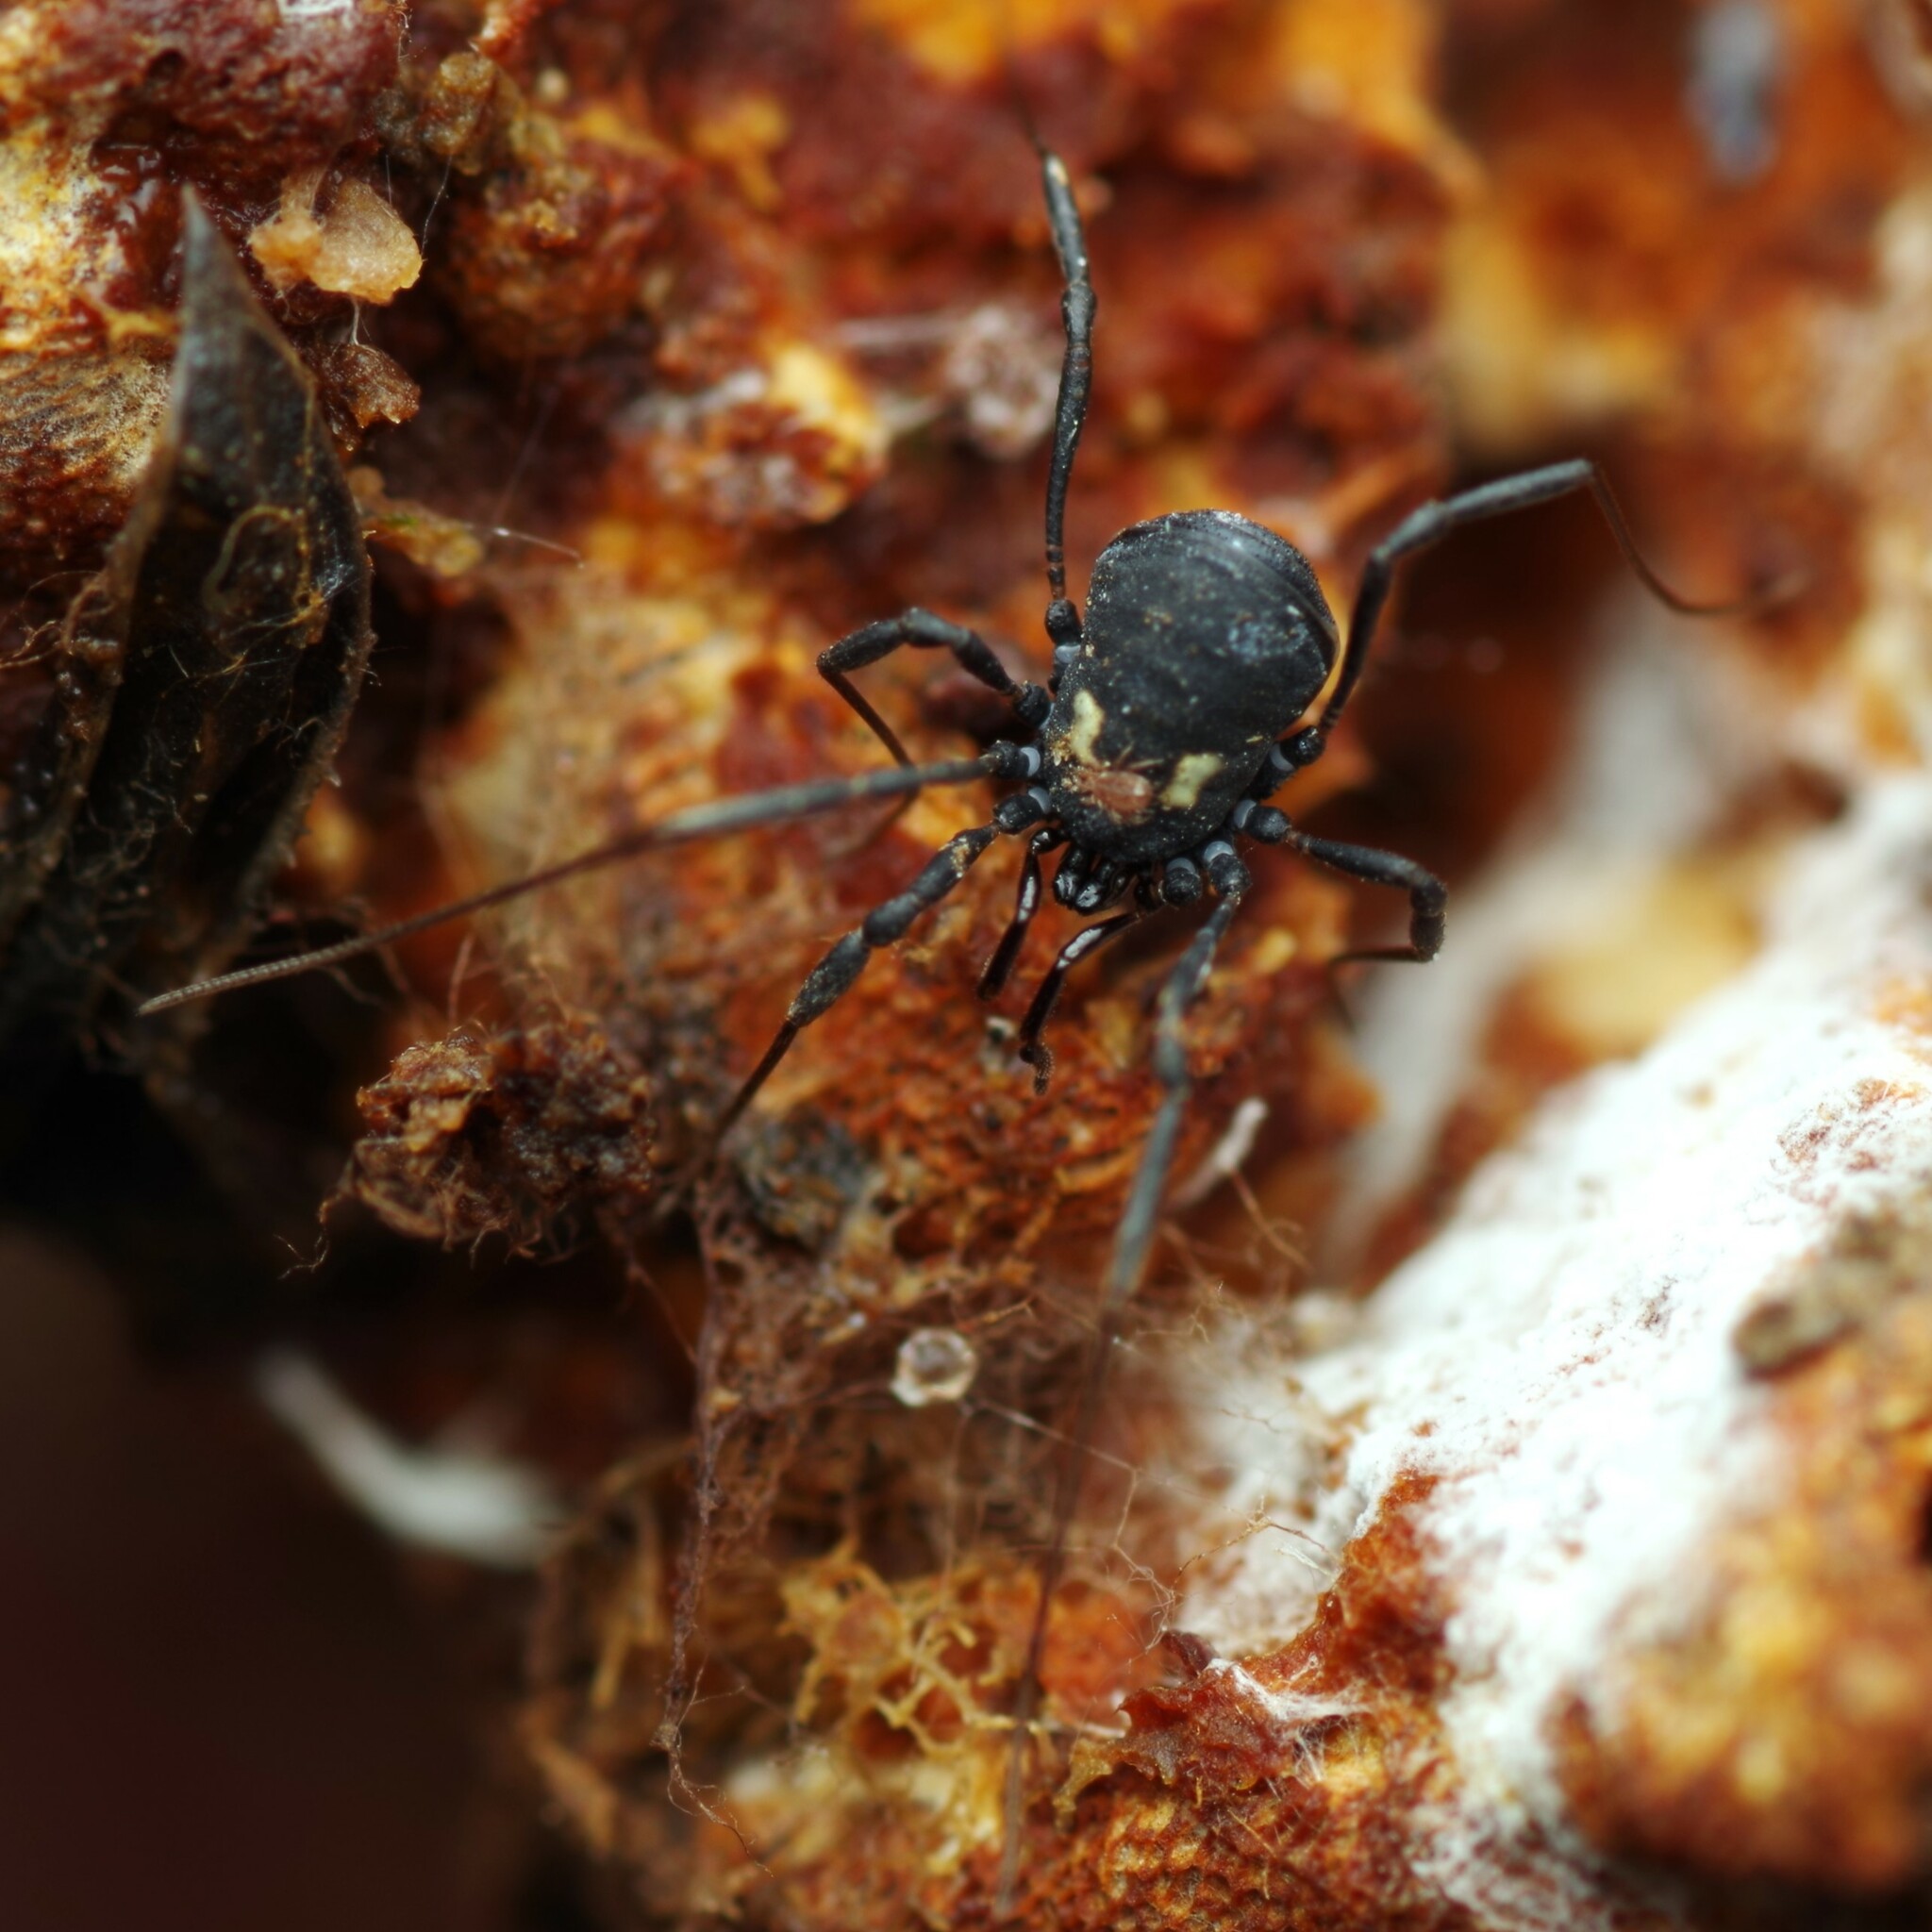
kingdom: Animalia
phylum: Arthropoda
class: Arachnida
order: Opiliones
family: Nemastomatidae
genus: Nemastoma
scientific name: Nemastoma bimaculatum
